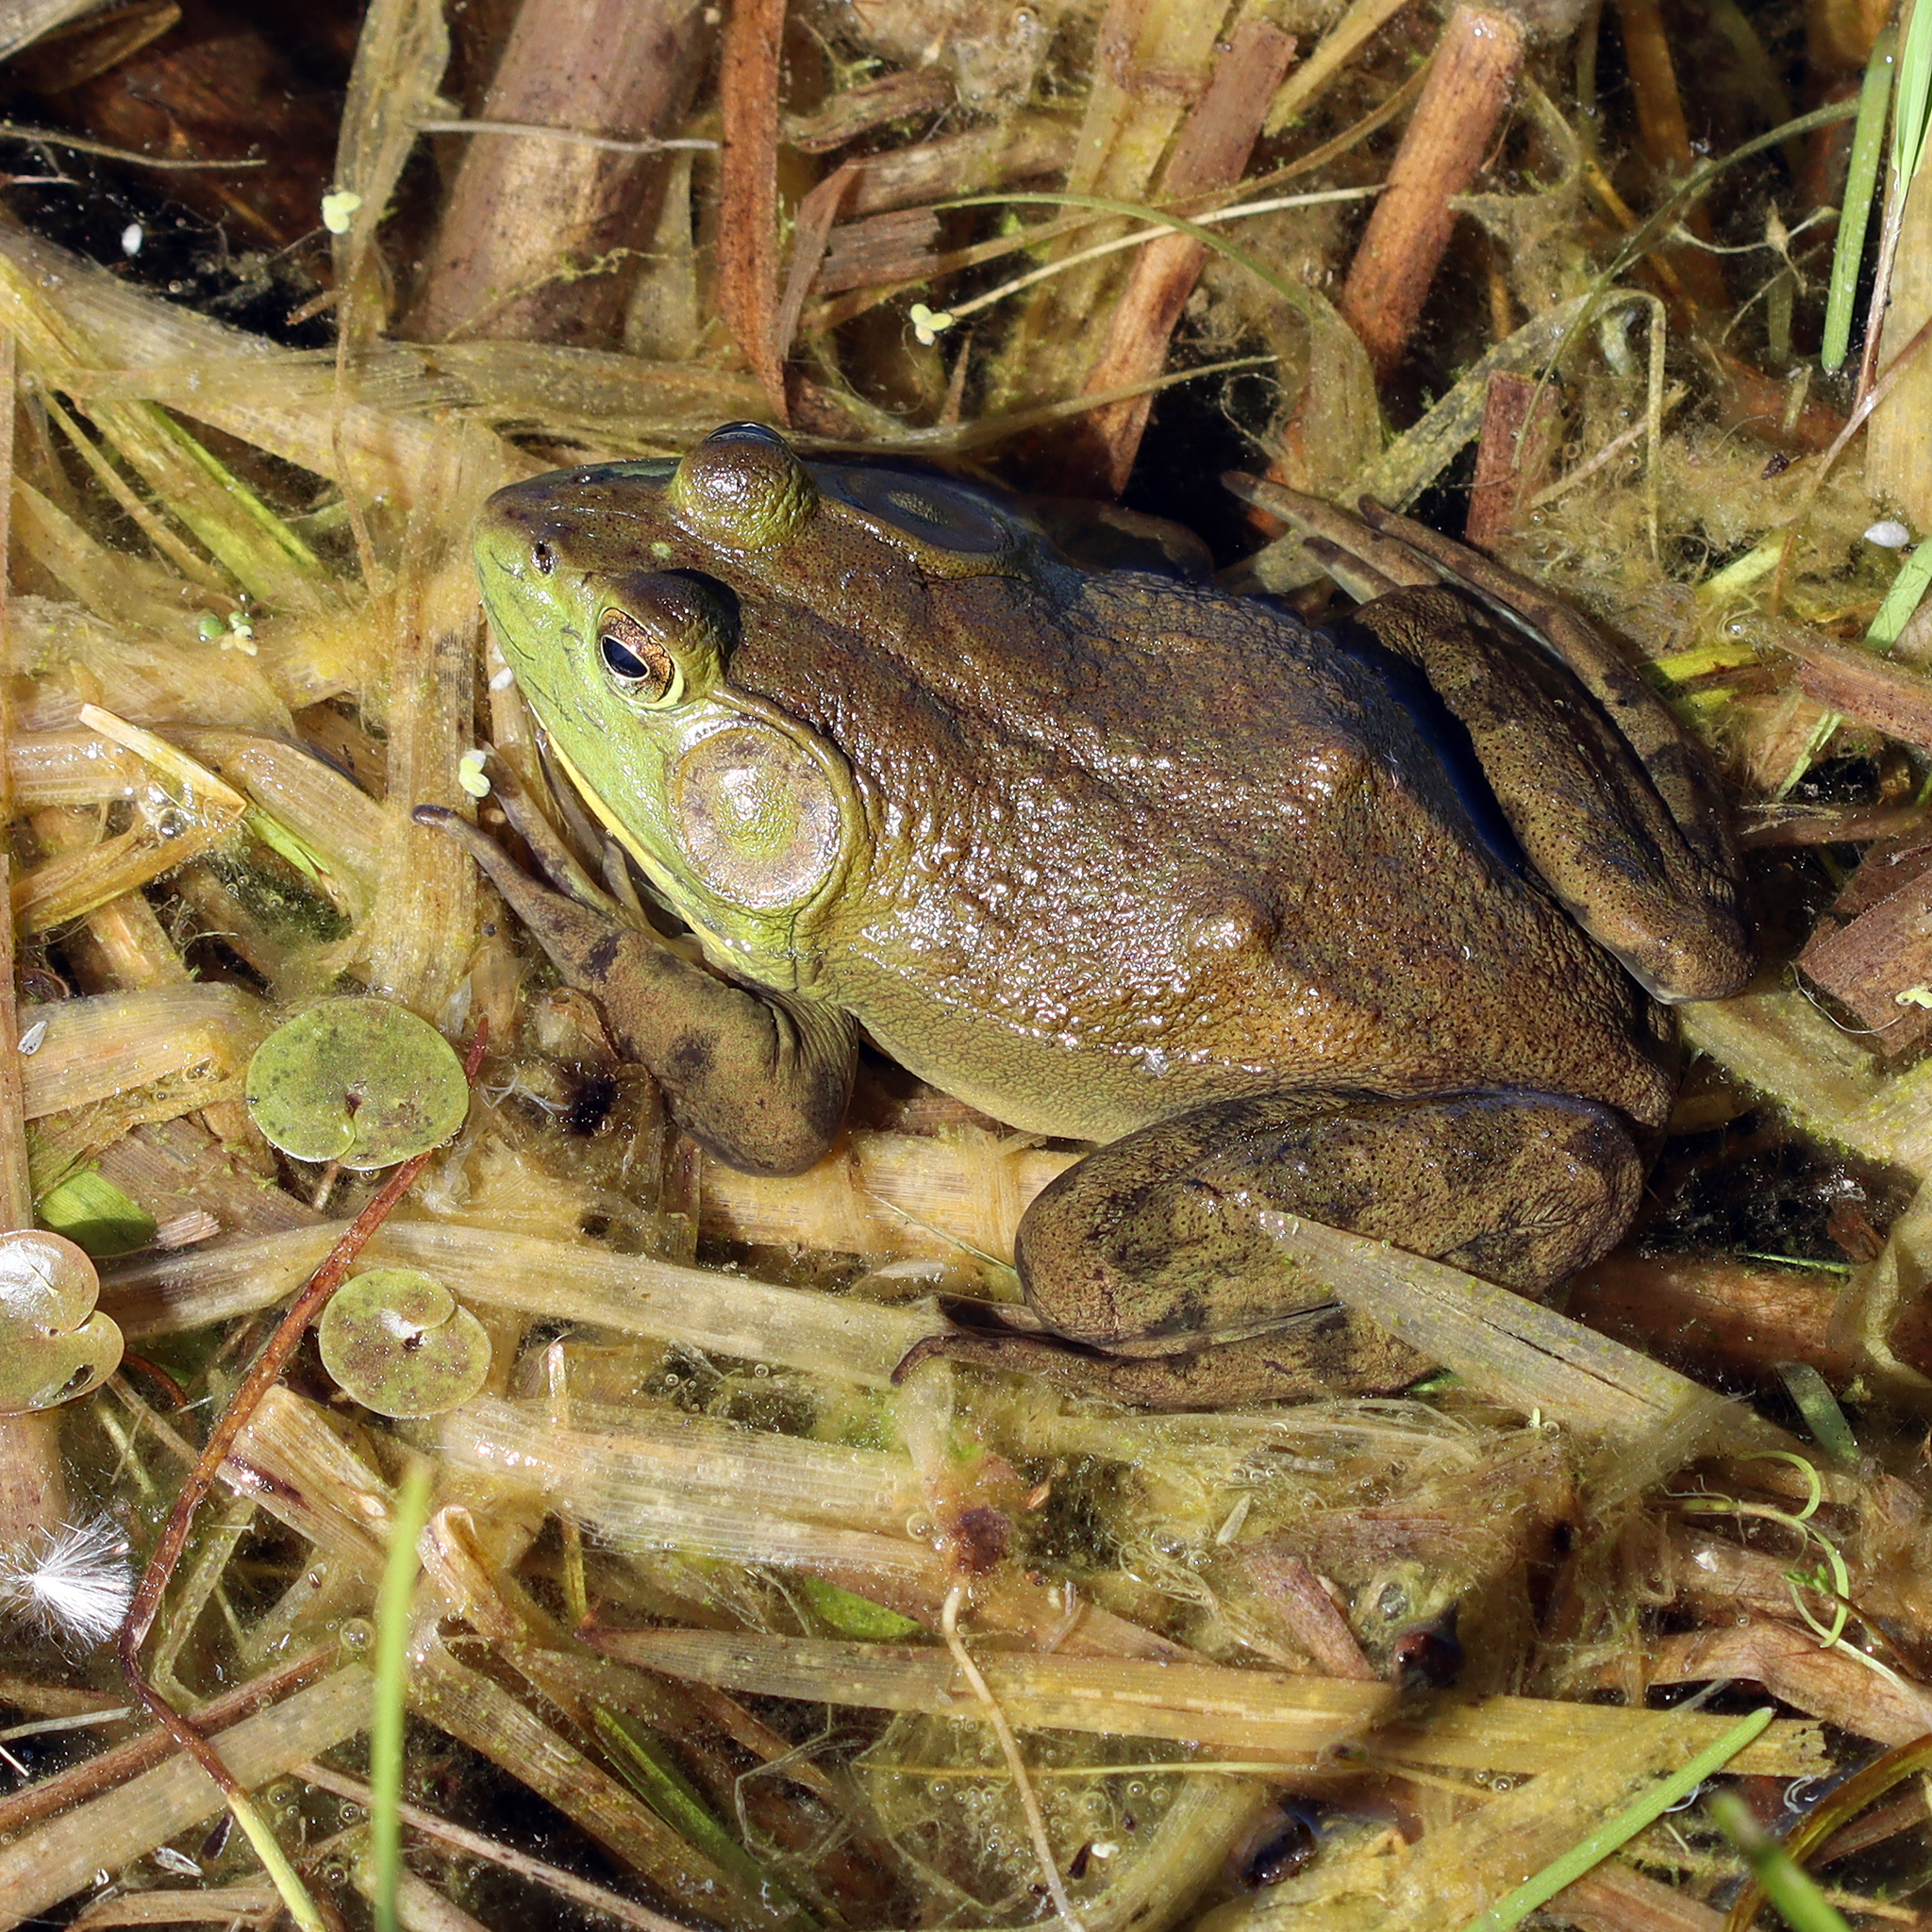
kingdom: Animalia
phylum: Chordata
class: Amphibia
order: Anura
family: Ranidae
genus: Lithobates
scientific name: Lithobates catesbeianus
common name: American bullfrog
